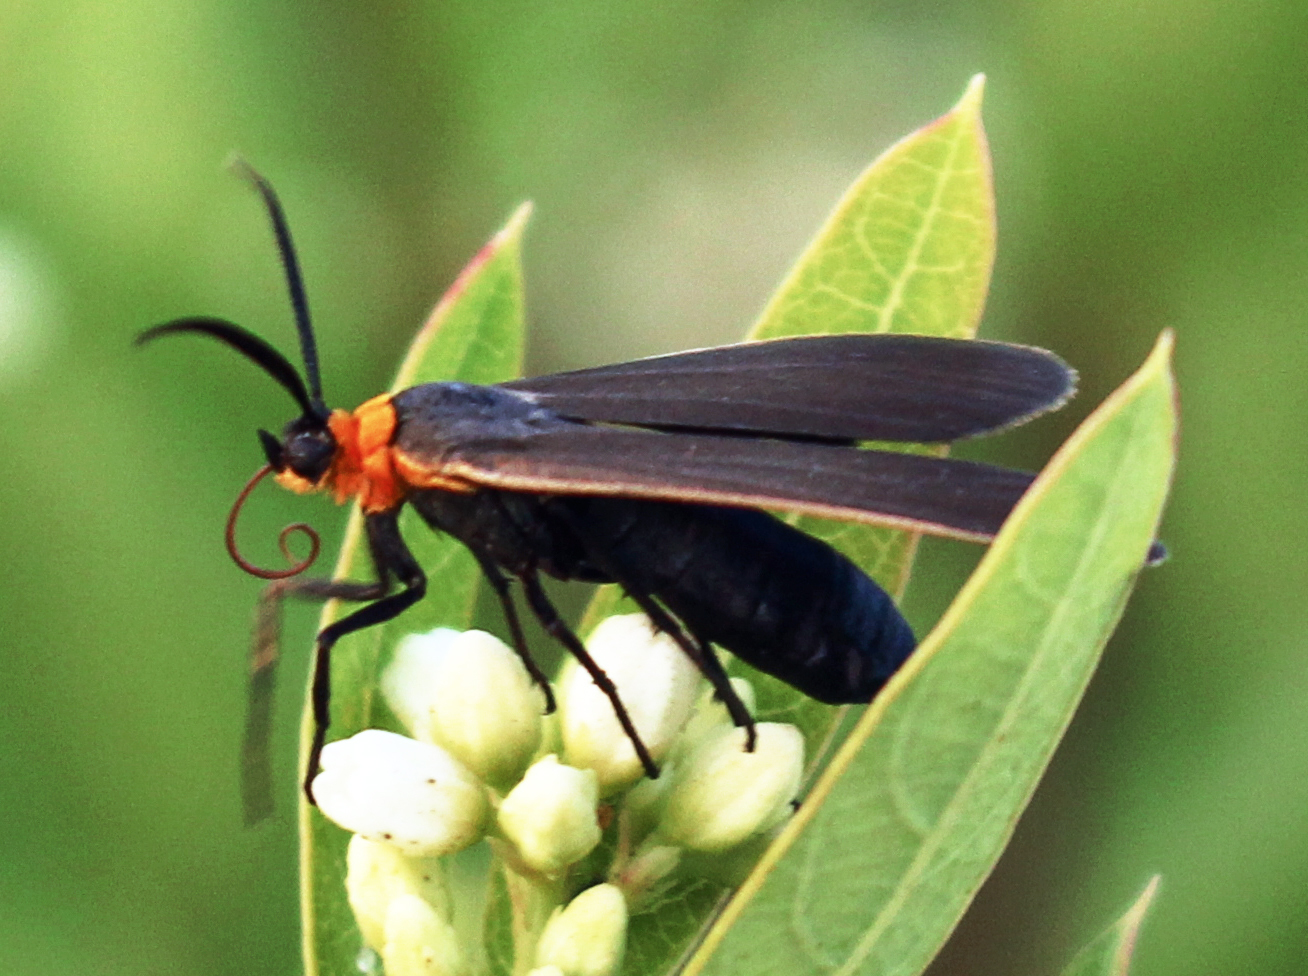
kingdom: Animalia
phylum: Arthropoda
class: Insecta
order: Lepidoptera
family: Erebidae
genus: Cisseps
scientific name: Cisseps fulvicollis
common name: Yellow-collared scape moth
